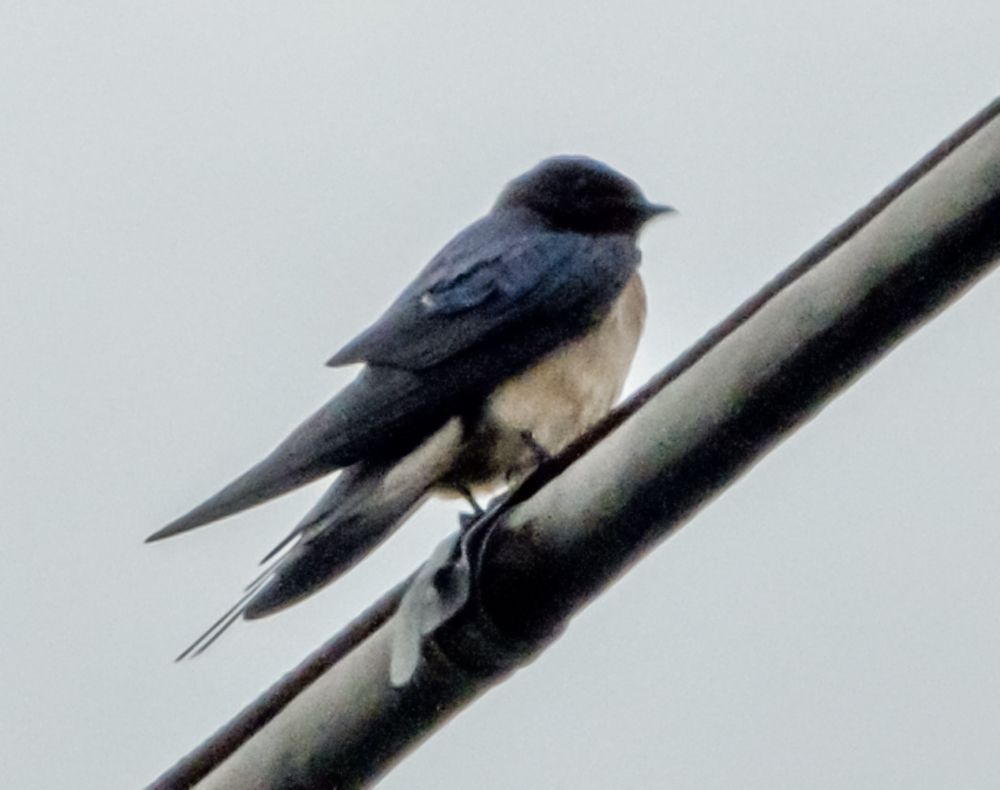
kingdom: Animalia
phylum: Chordata
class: Aves
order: Passeriformes
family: Hirundinidae
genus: Hirundo
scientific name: Hirundo rustica
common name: Barn swallow
